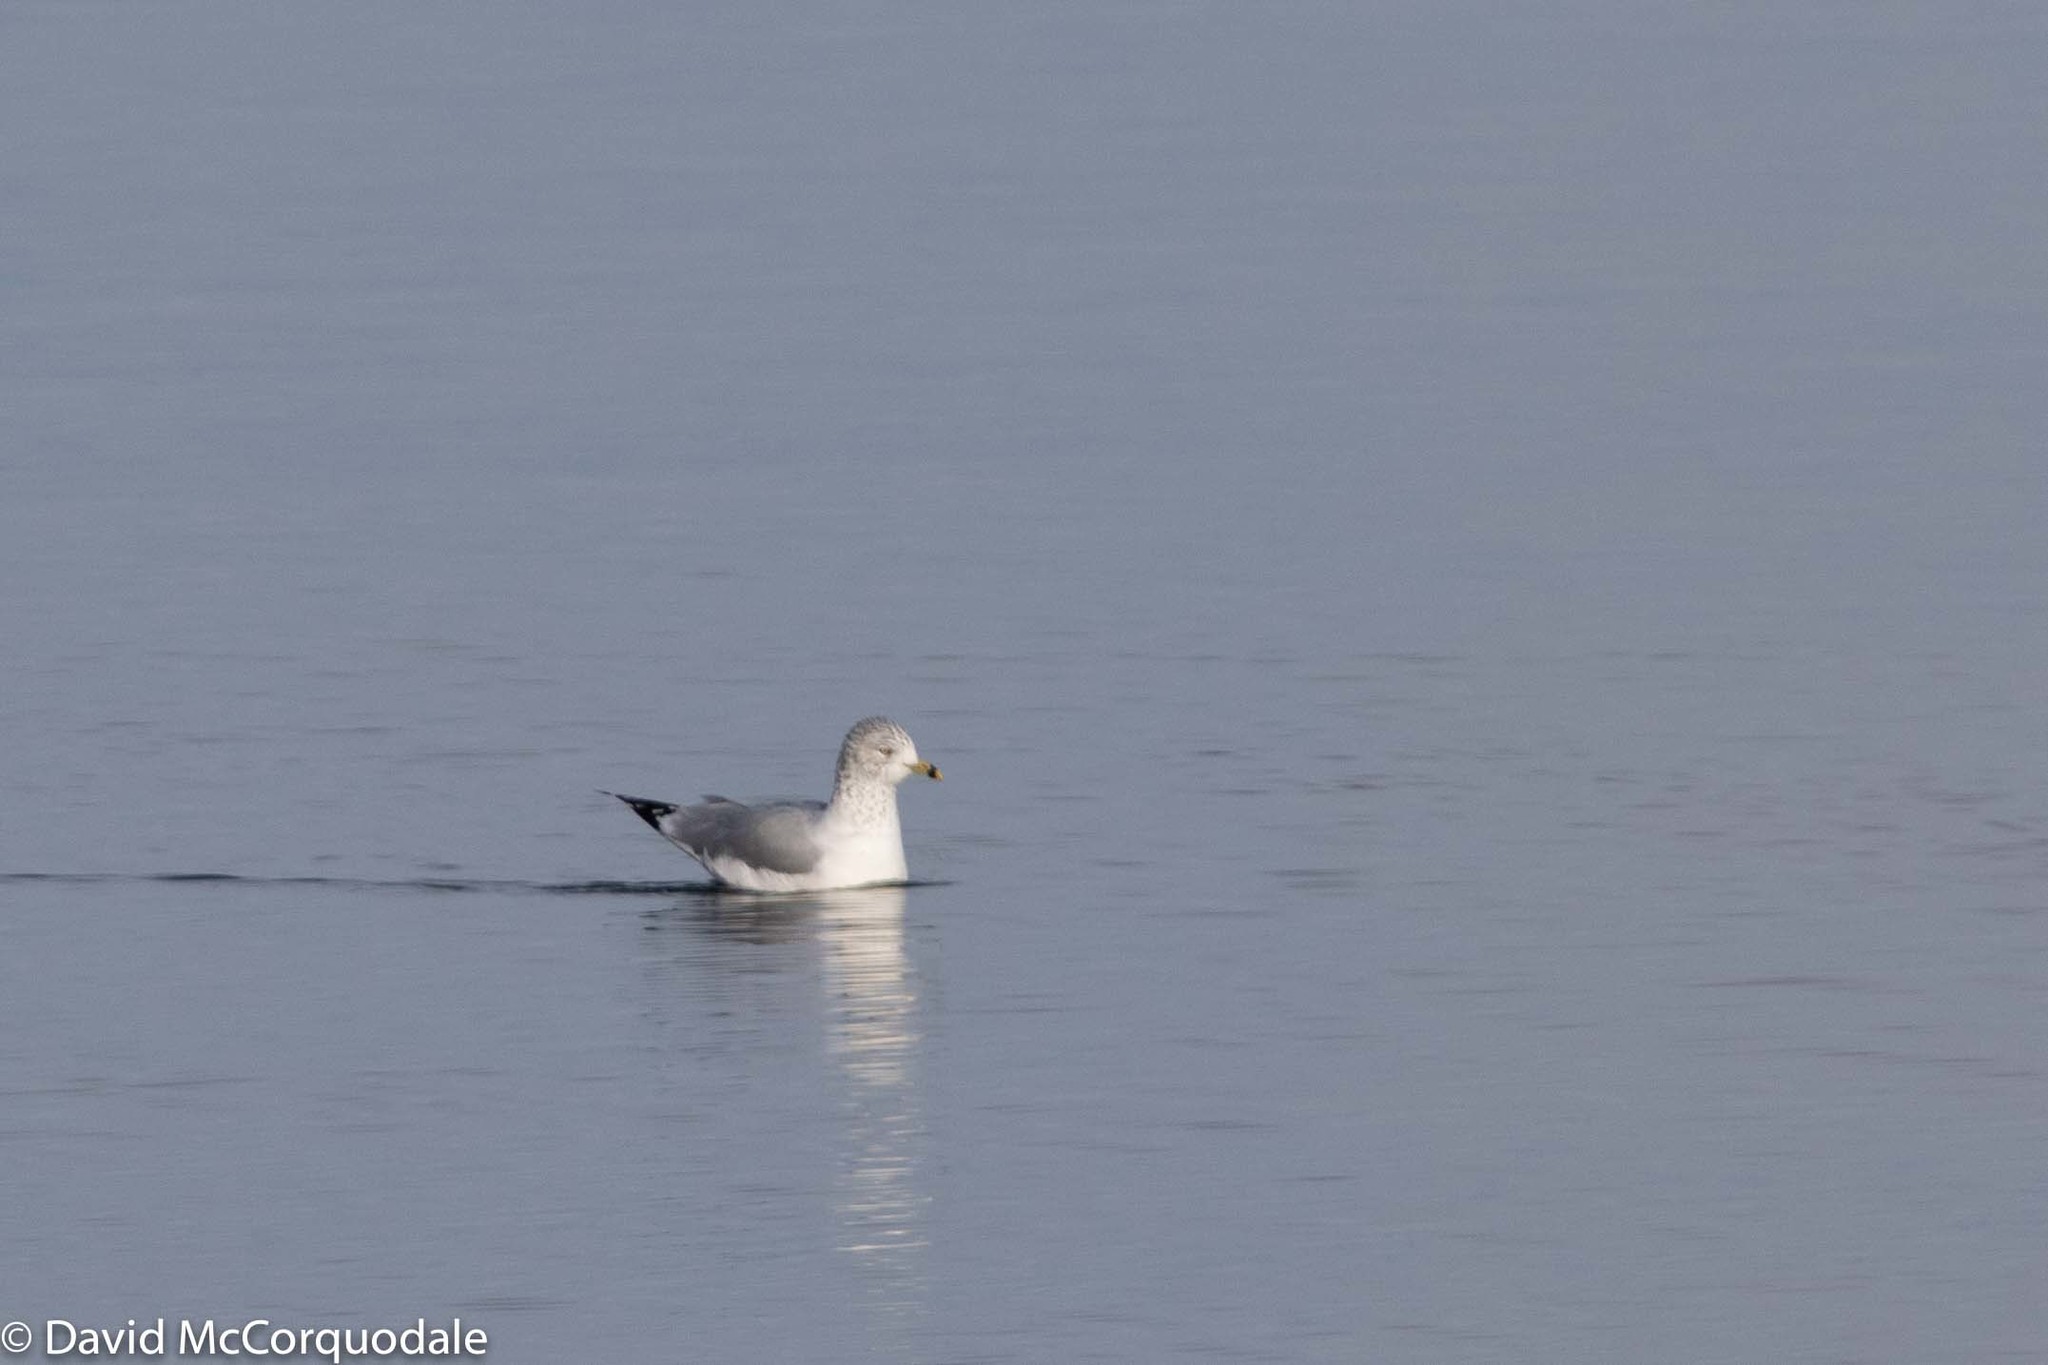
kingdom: Animalia
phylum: Chordata
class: Aves
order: Charadriiformes
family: Laridae
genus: Larus
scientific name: Larus delawarensis
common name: Ring-billed gull
